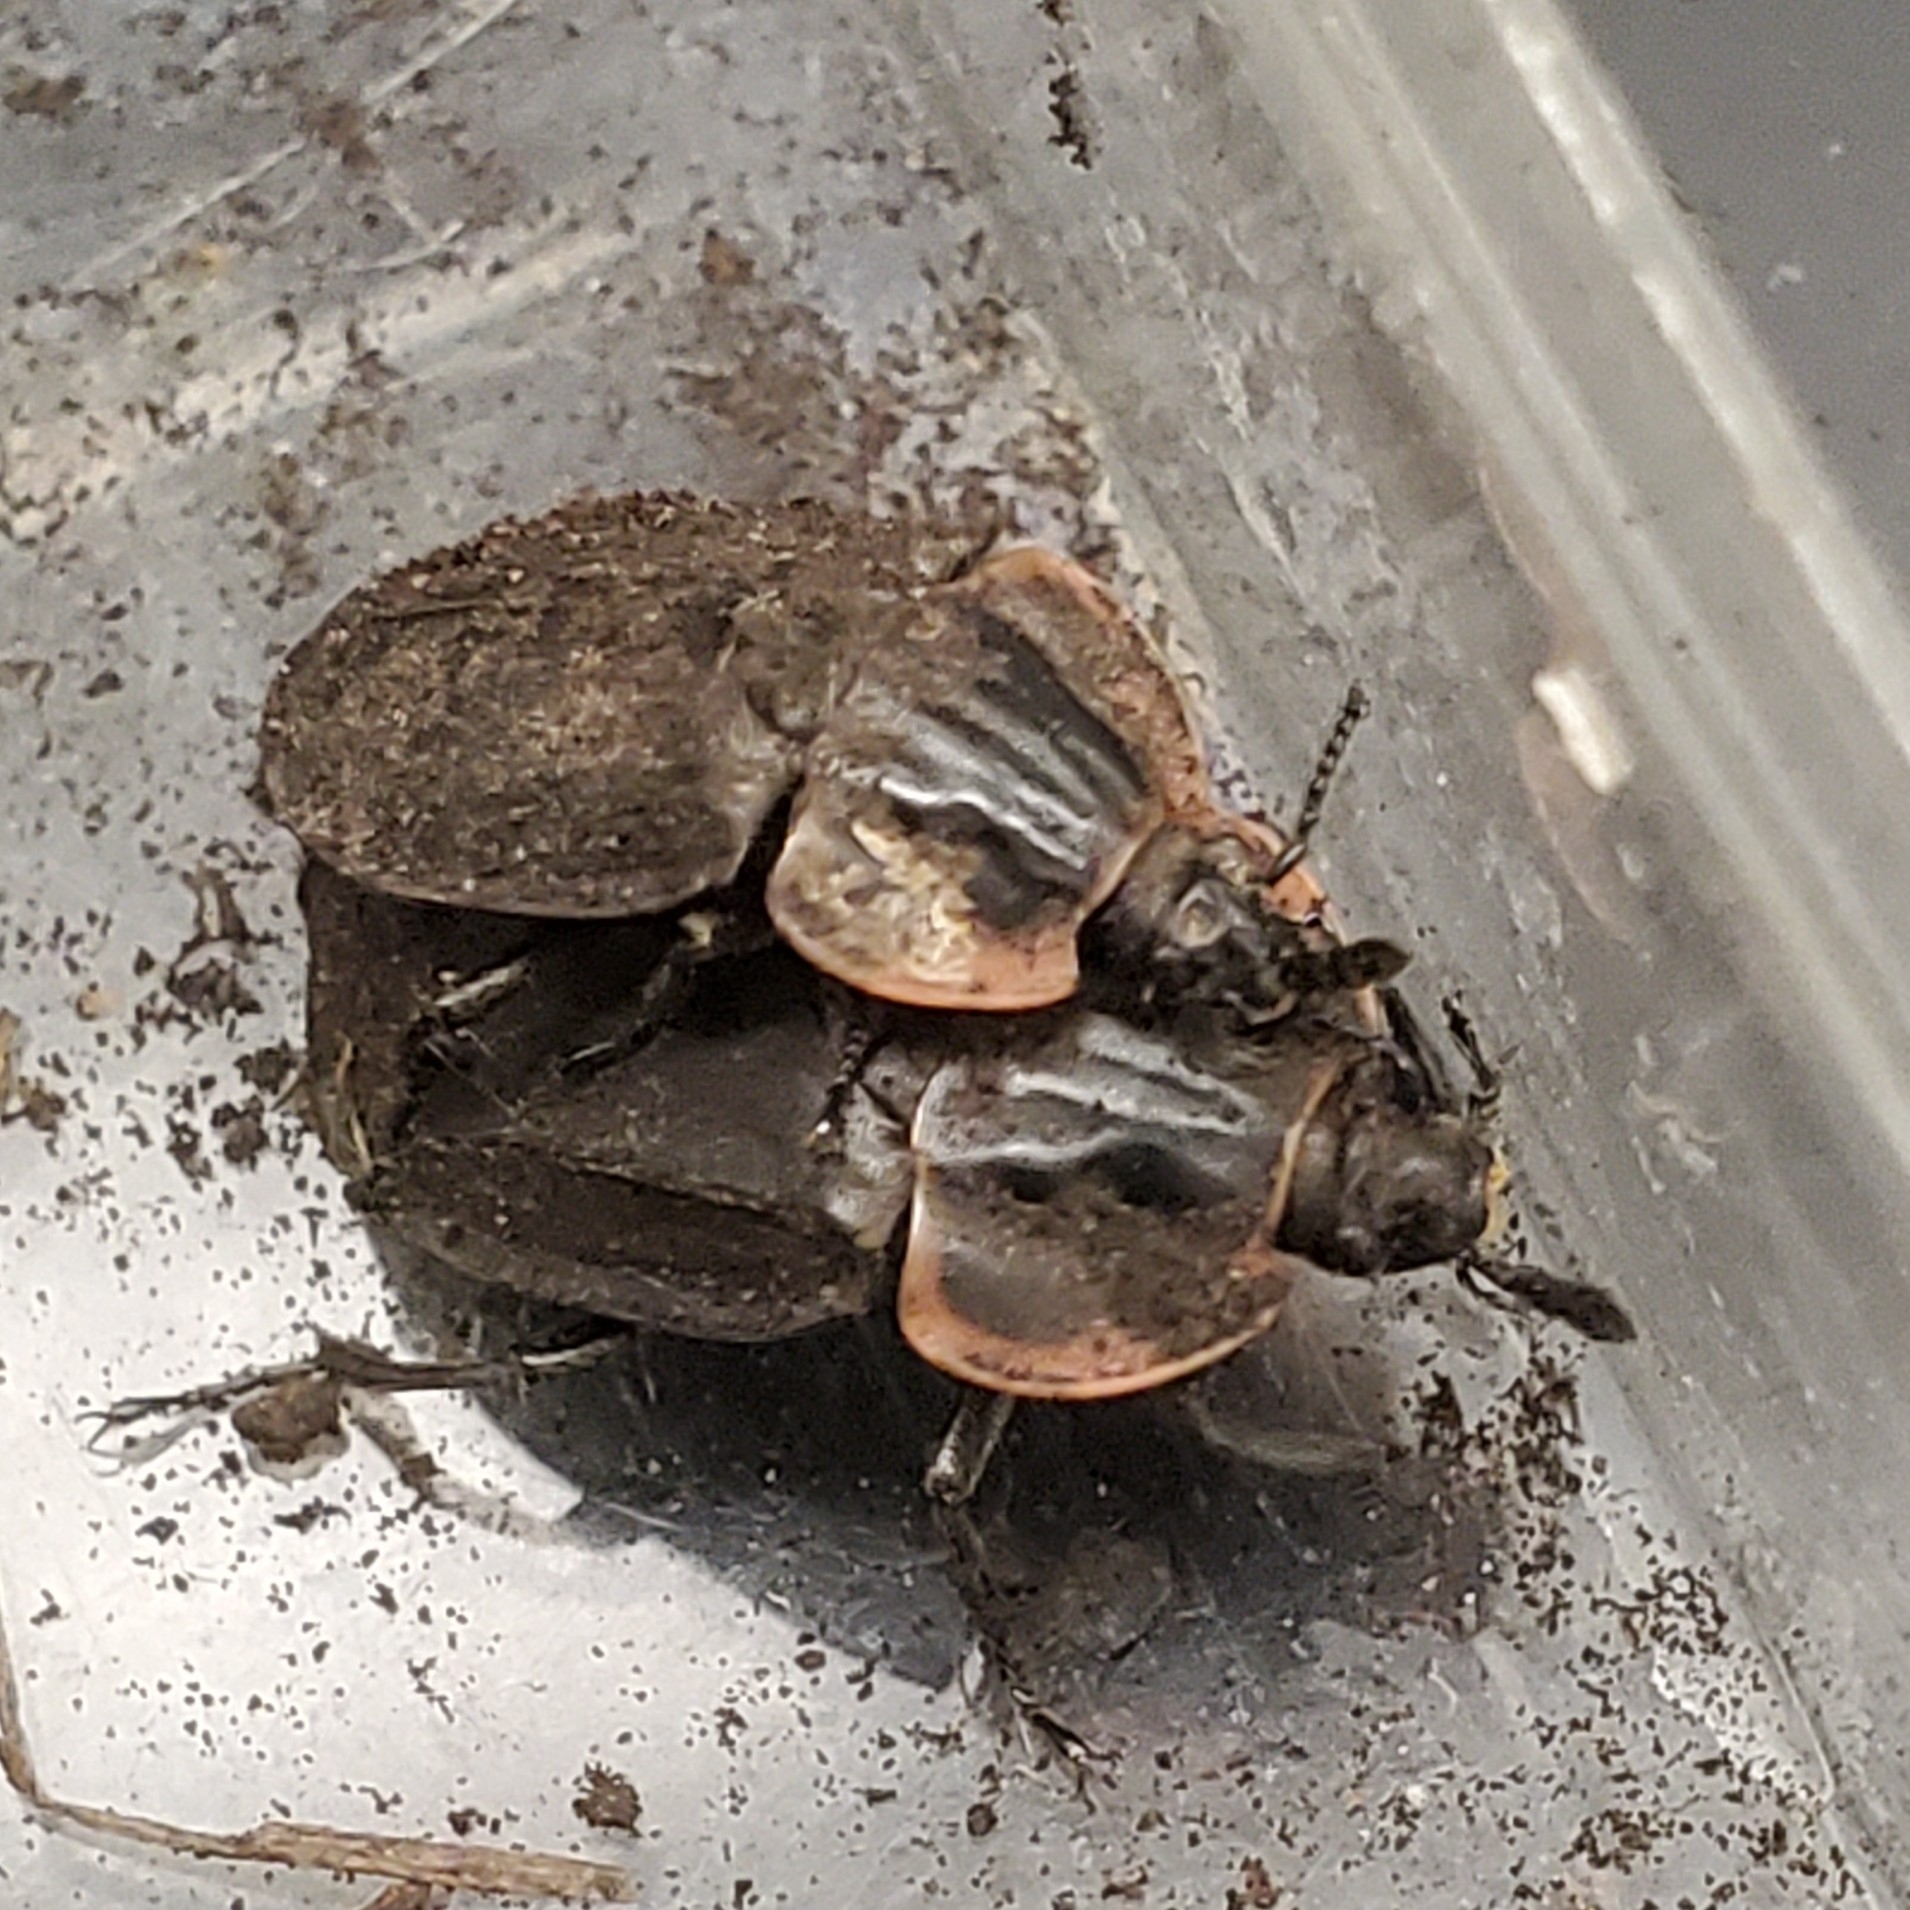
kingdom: Animalia
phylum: Arthropoda
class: Insecta
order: Coleoptera
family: Staphylinidae
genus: Oiceoptoma
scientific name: Oiceoptoma noveboracense
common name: Margined carrion beetle
